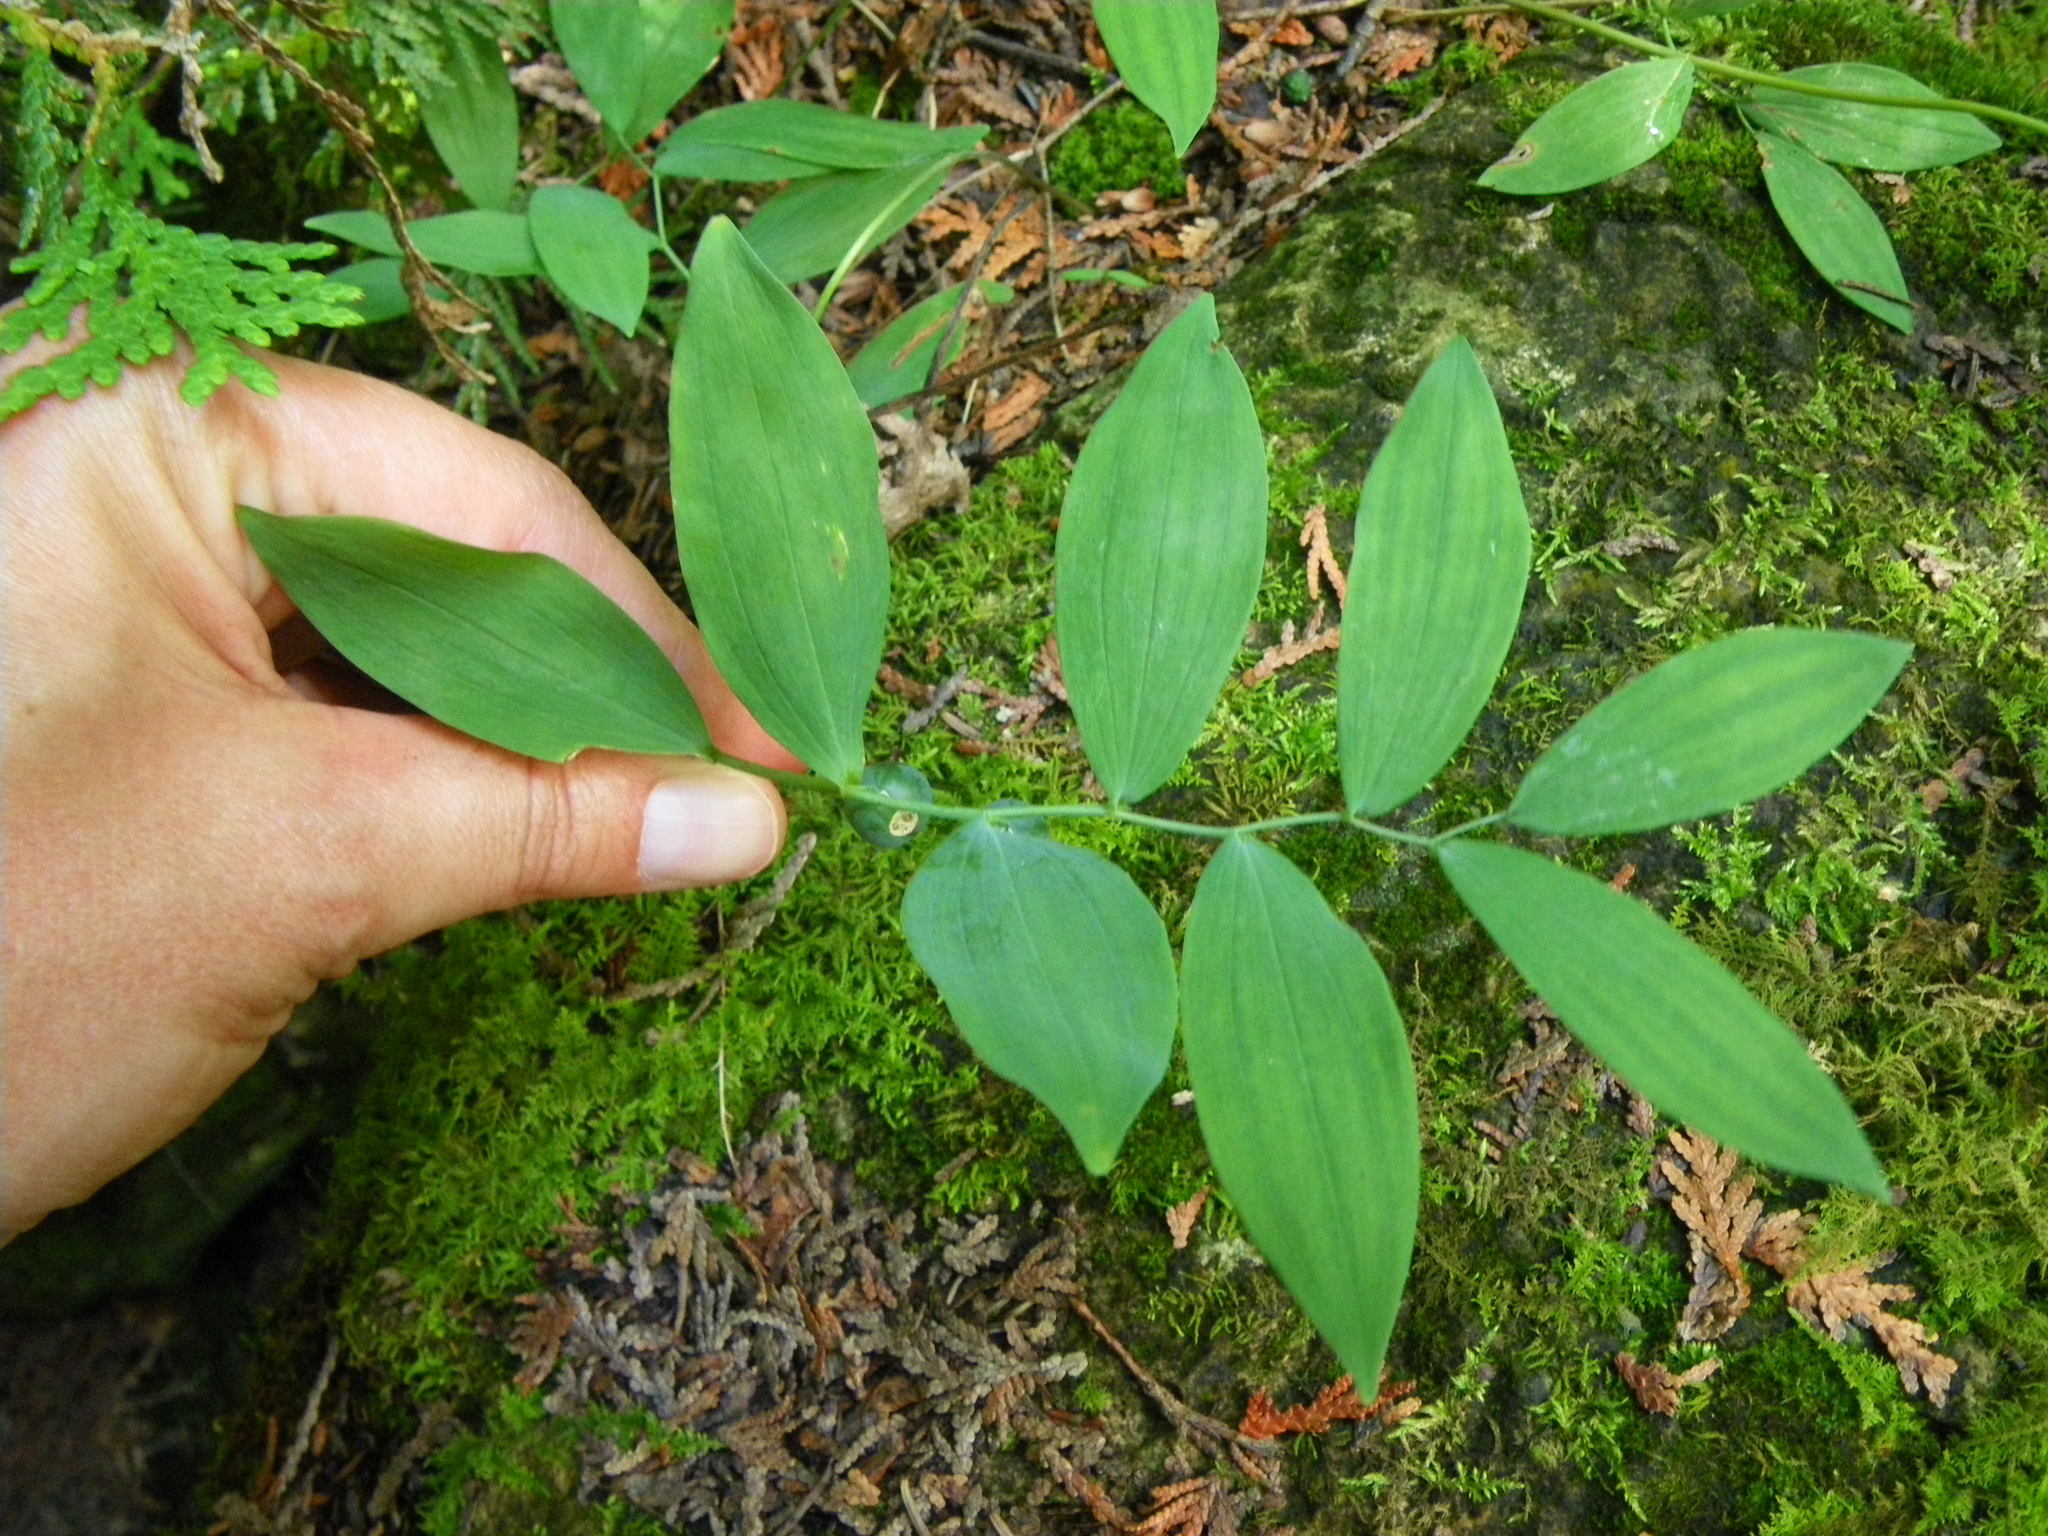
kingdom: Plantae
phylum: Tracheophyta
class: Liliopsida
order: Asparagales
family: Asparagaceae
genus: Polygonatum
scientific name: Polygonatum pubescens
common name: Downy solomon's seal
